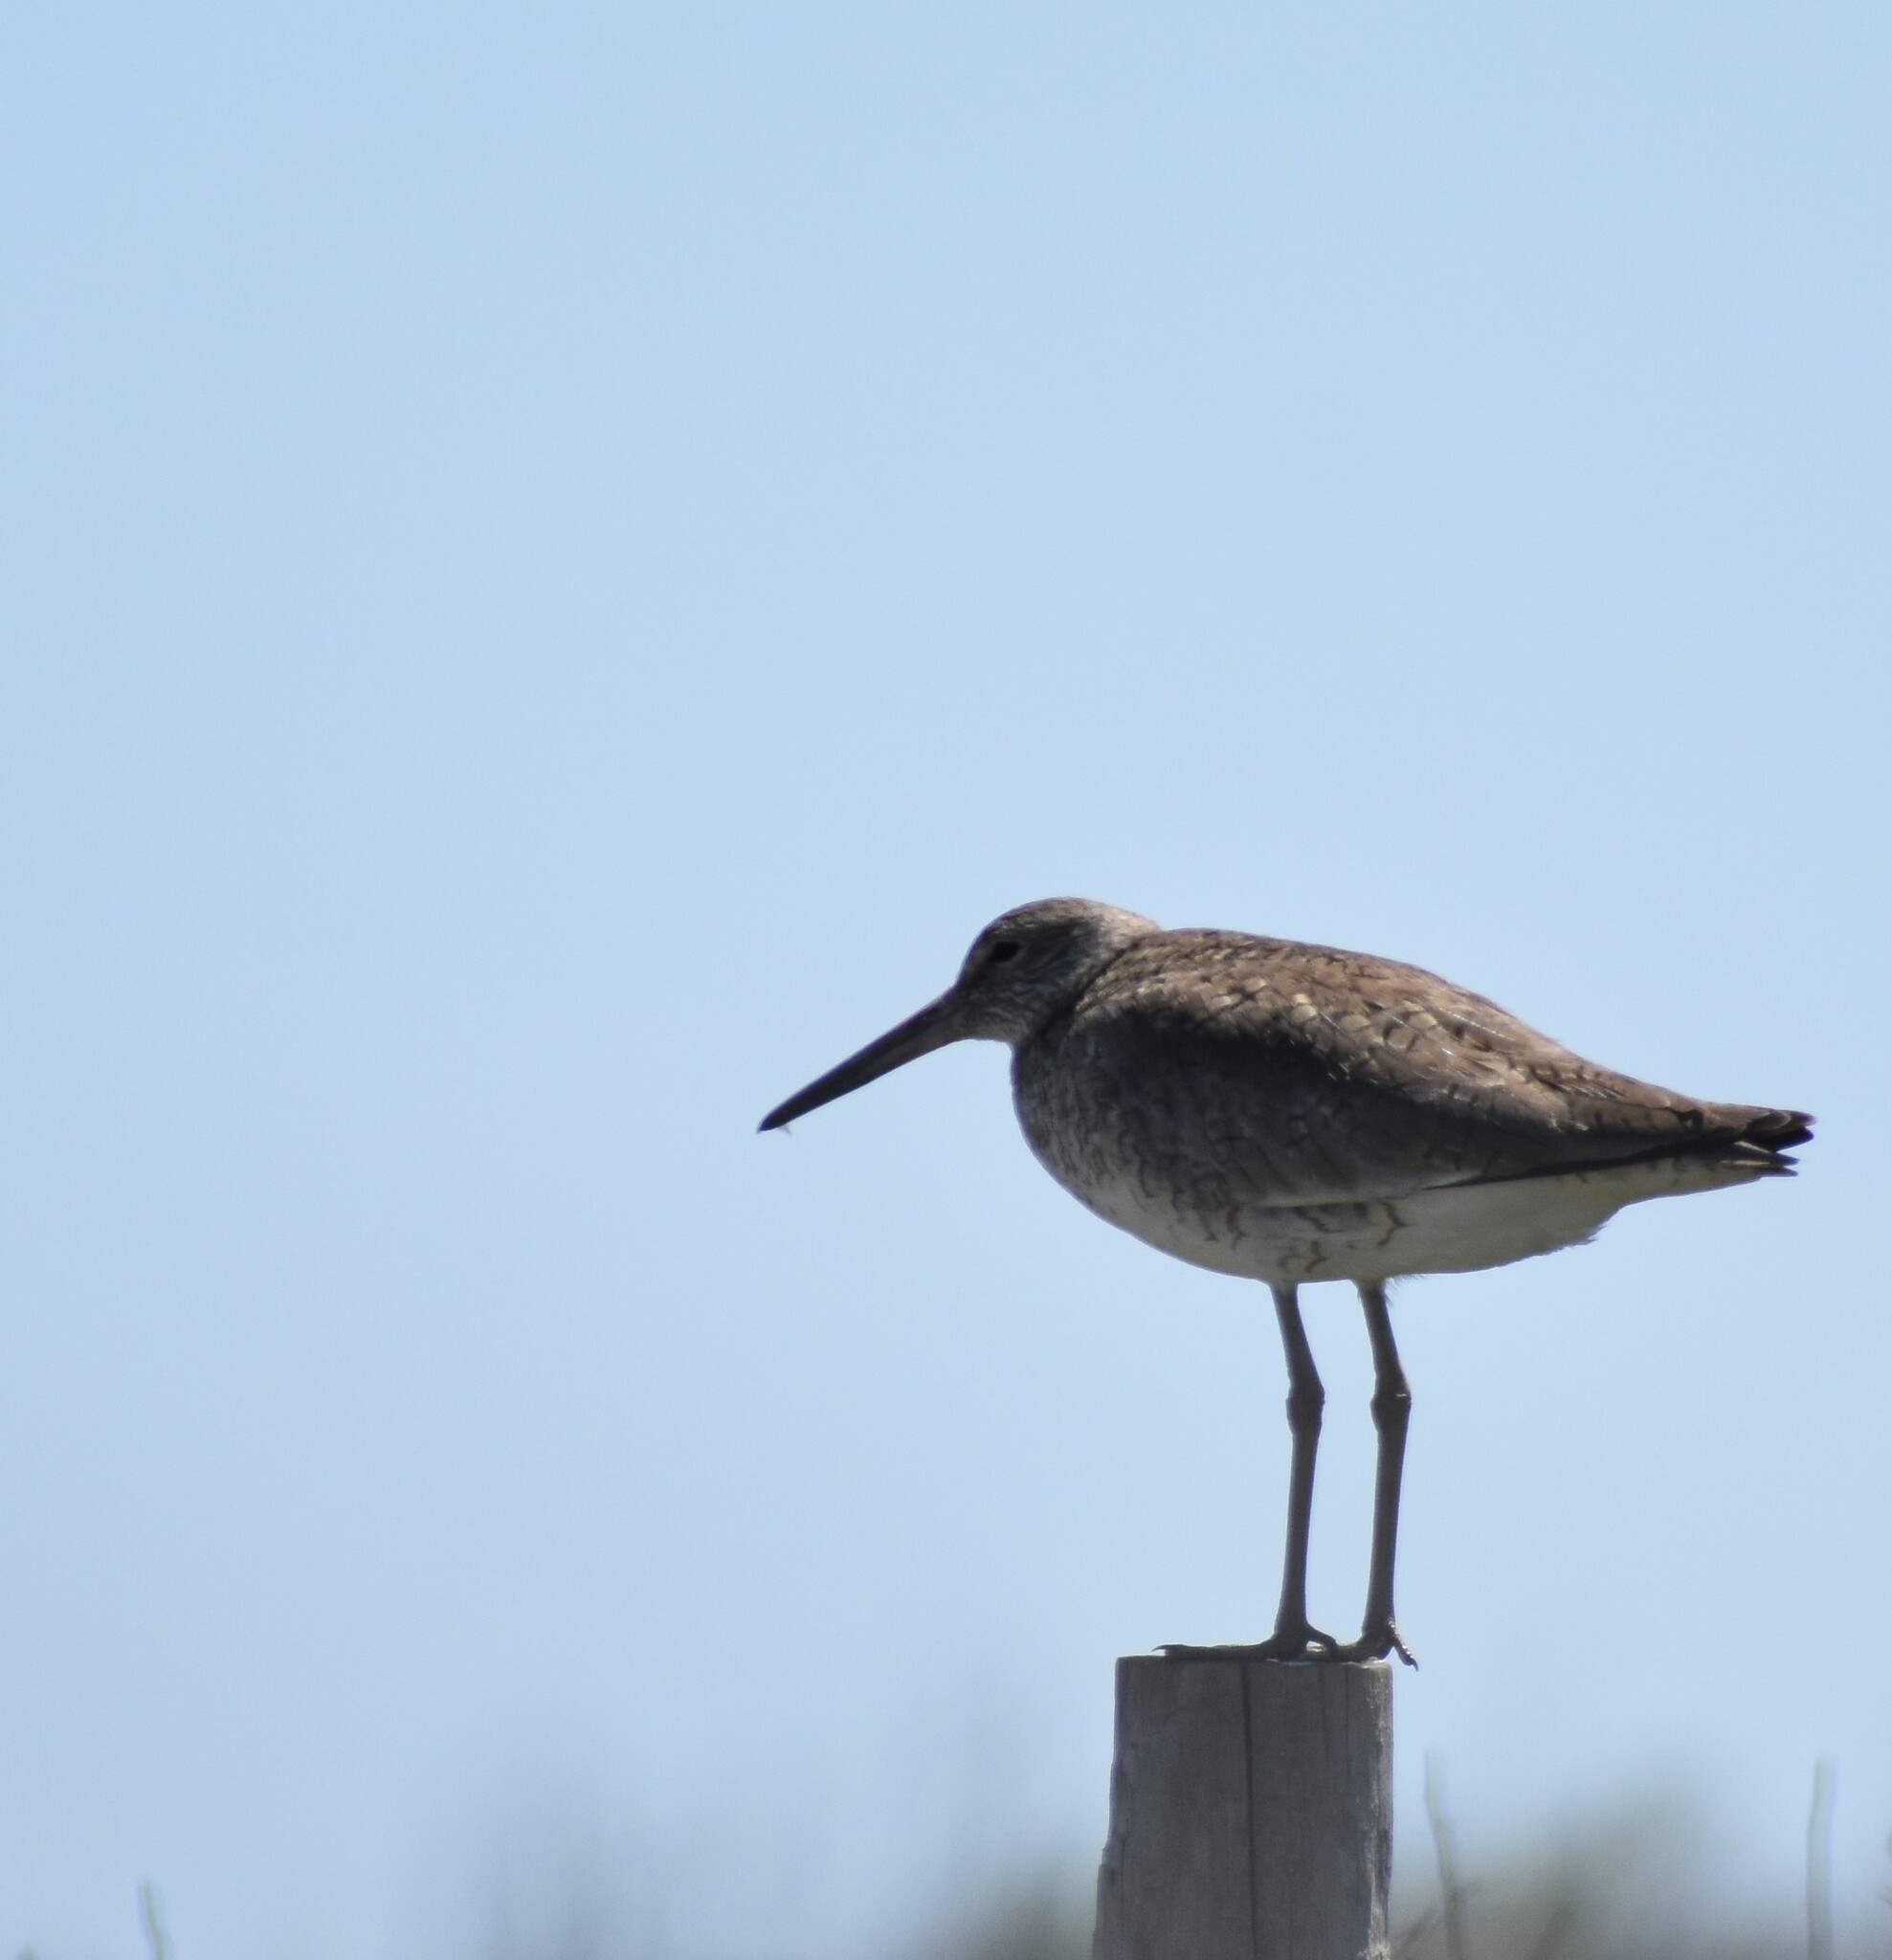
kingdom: Animalia
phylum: Chordata
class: Aves
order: Charadriiformes
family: Scolopacidae
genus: Tringa
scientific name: Tringa semipalmata
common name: Willet
